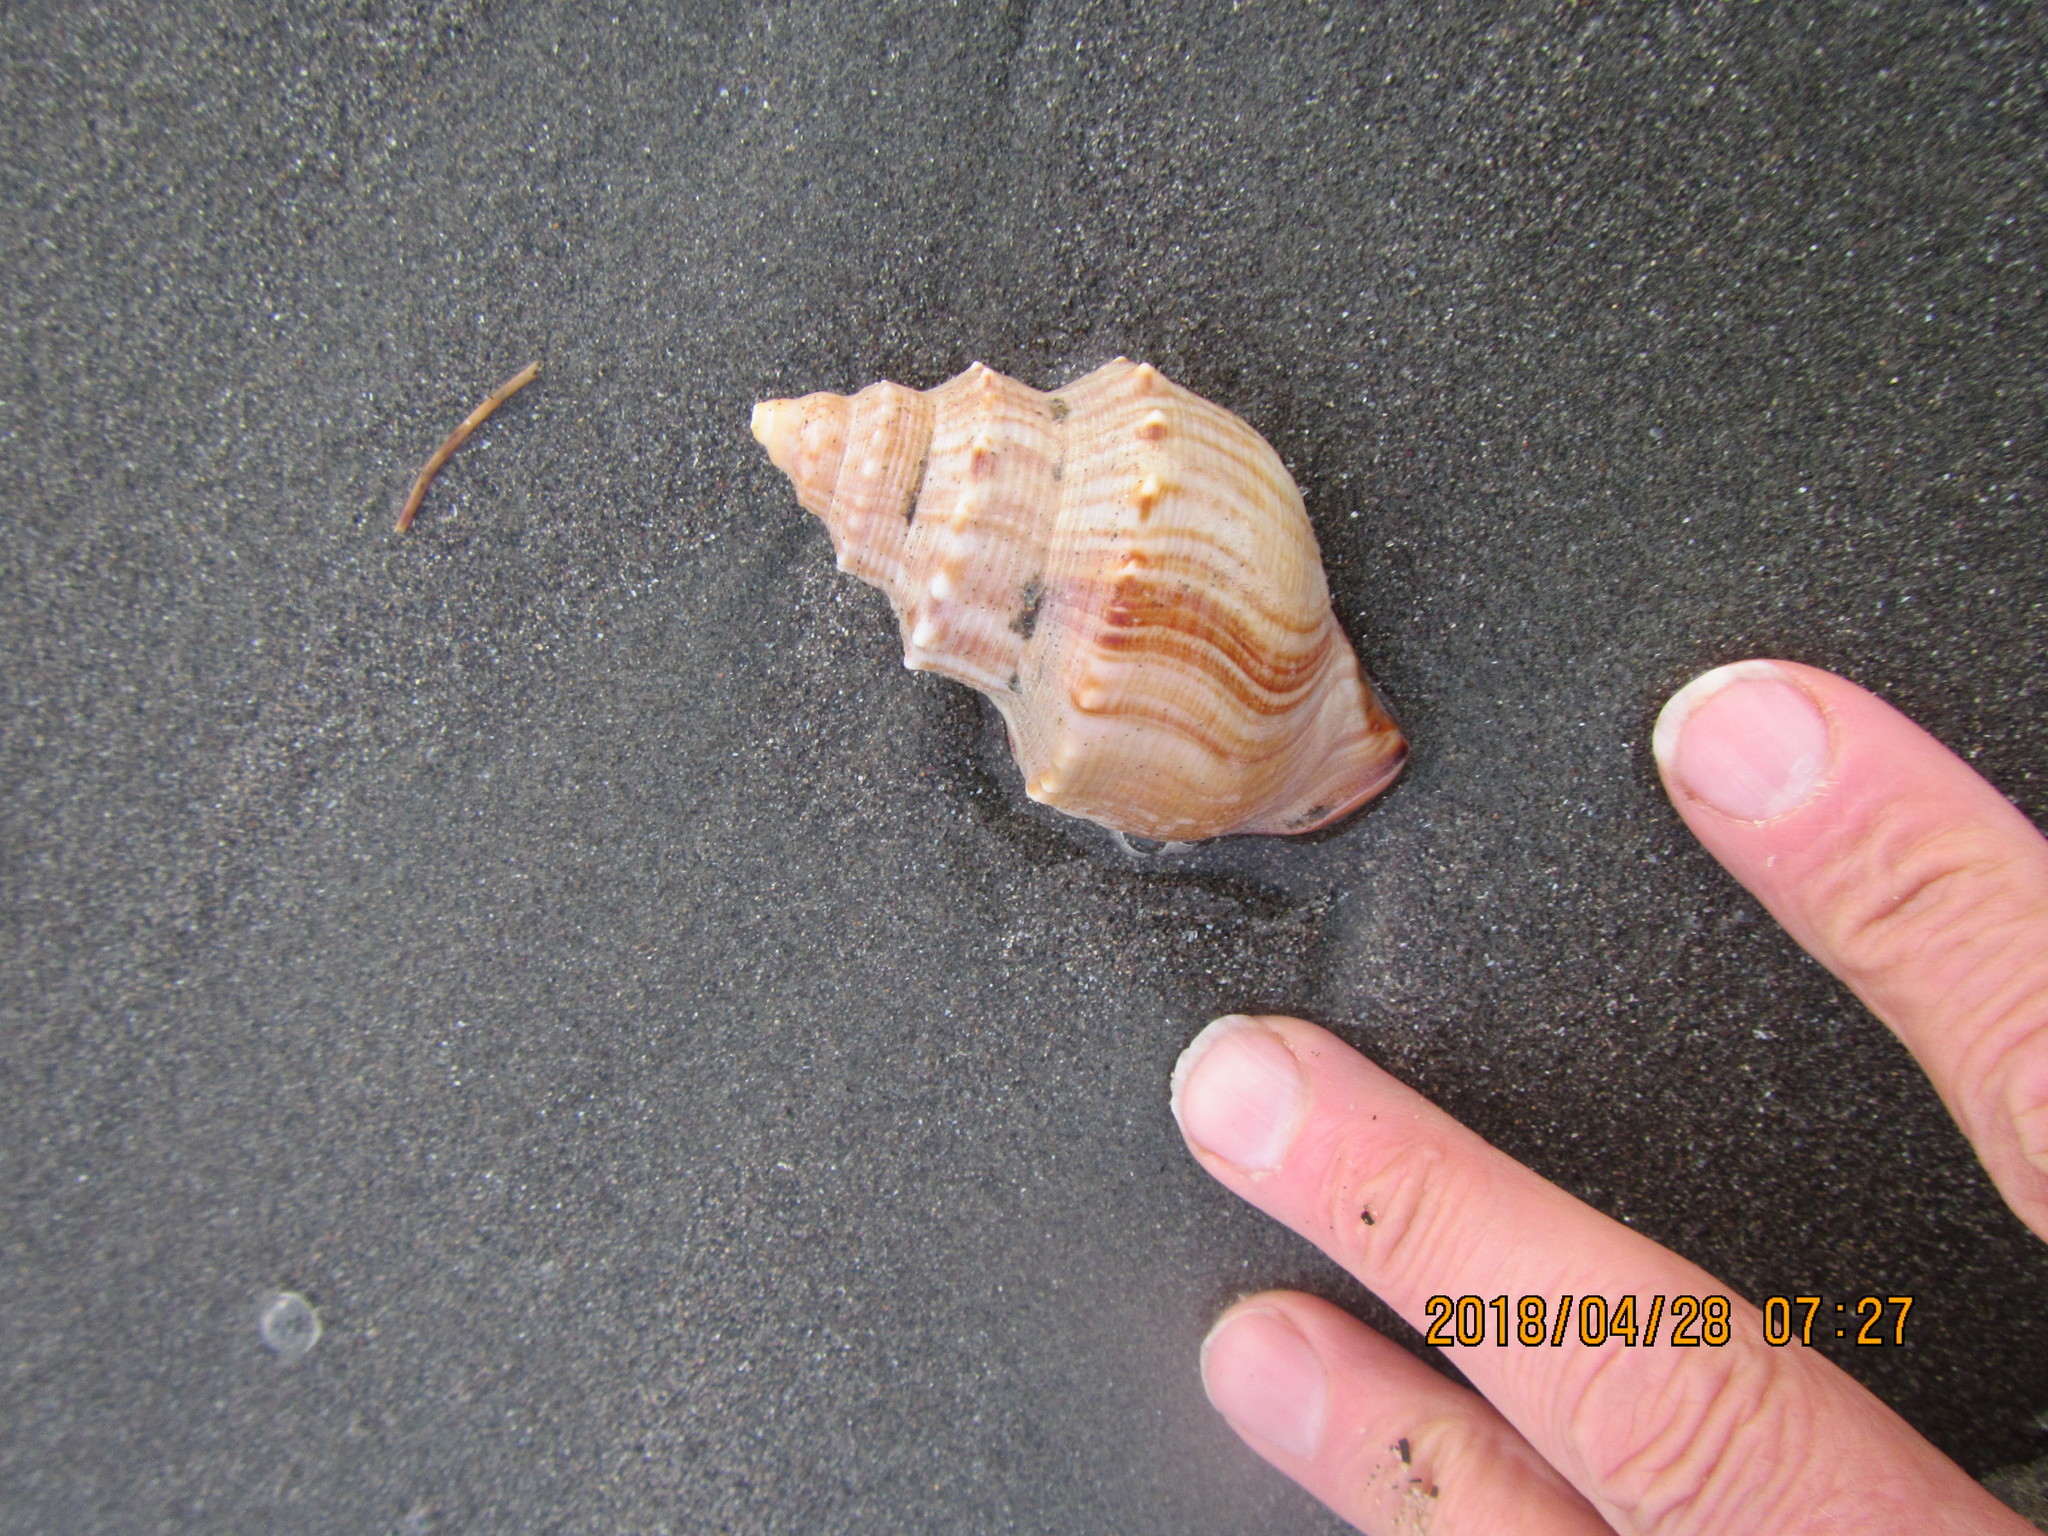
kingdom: Animalia
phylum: Mollusca
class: Gastropoda
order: Littorinimorpha
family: Struthiolariidae
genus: Struthiolaria
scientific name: Struthiolaria papulosa
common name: Large ostrich foot
